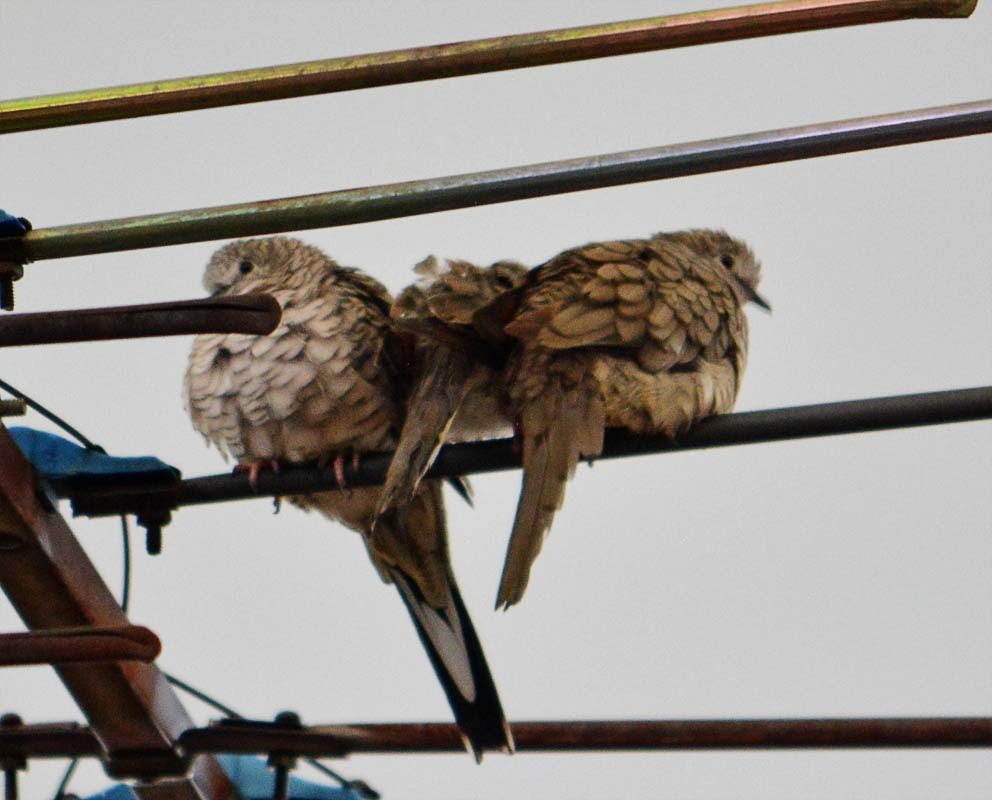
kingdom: Animalia
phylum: Chordata
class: Aves
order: Columbiformes
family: Columbidae
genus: Columbina
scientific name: Columbina inca
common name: Inca dove
